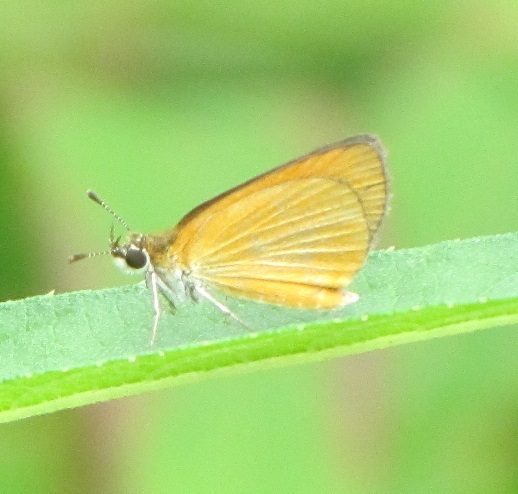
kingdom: Animalia
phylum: Arthropoda
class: Insecta
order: Lepidoptera
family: Hesperiidae
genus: Ancyloxypha
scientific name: Ancyloxypha numitor
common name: Least skipper
